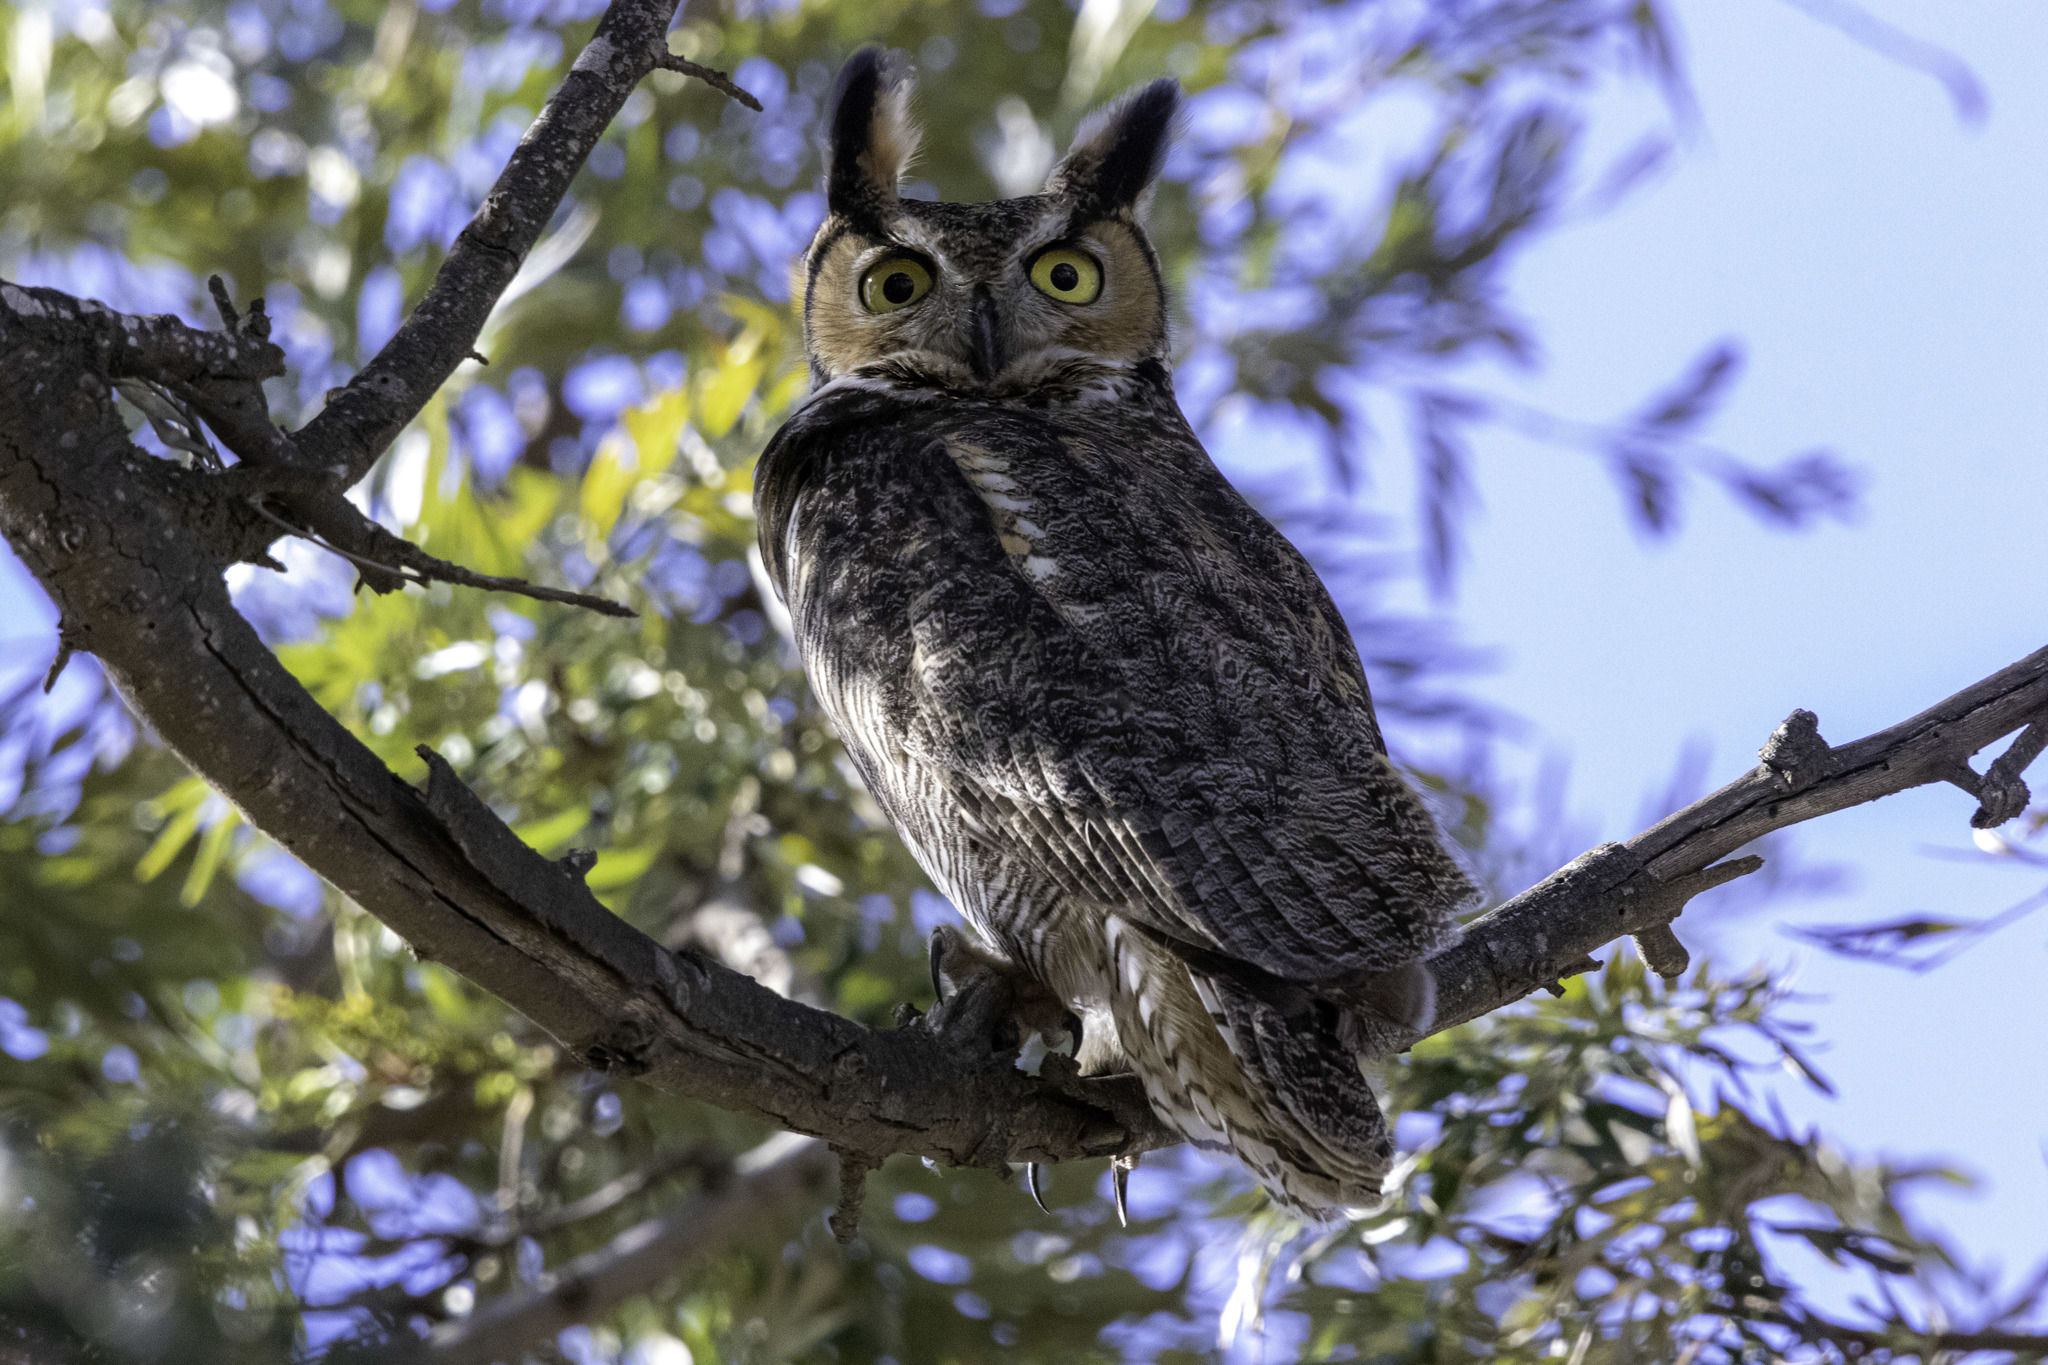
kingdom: Animalia
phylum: Chordata
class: Aves
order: Strigiformes
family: Strigidae
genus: Bubo
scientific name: Bubo virginianus
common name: Great horned owl
